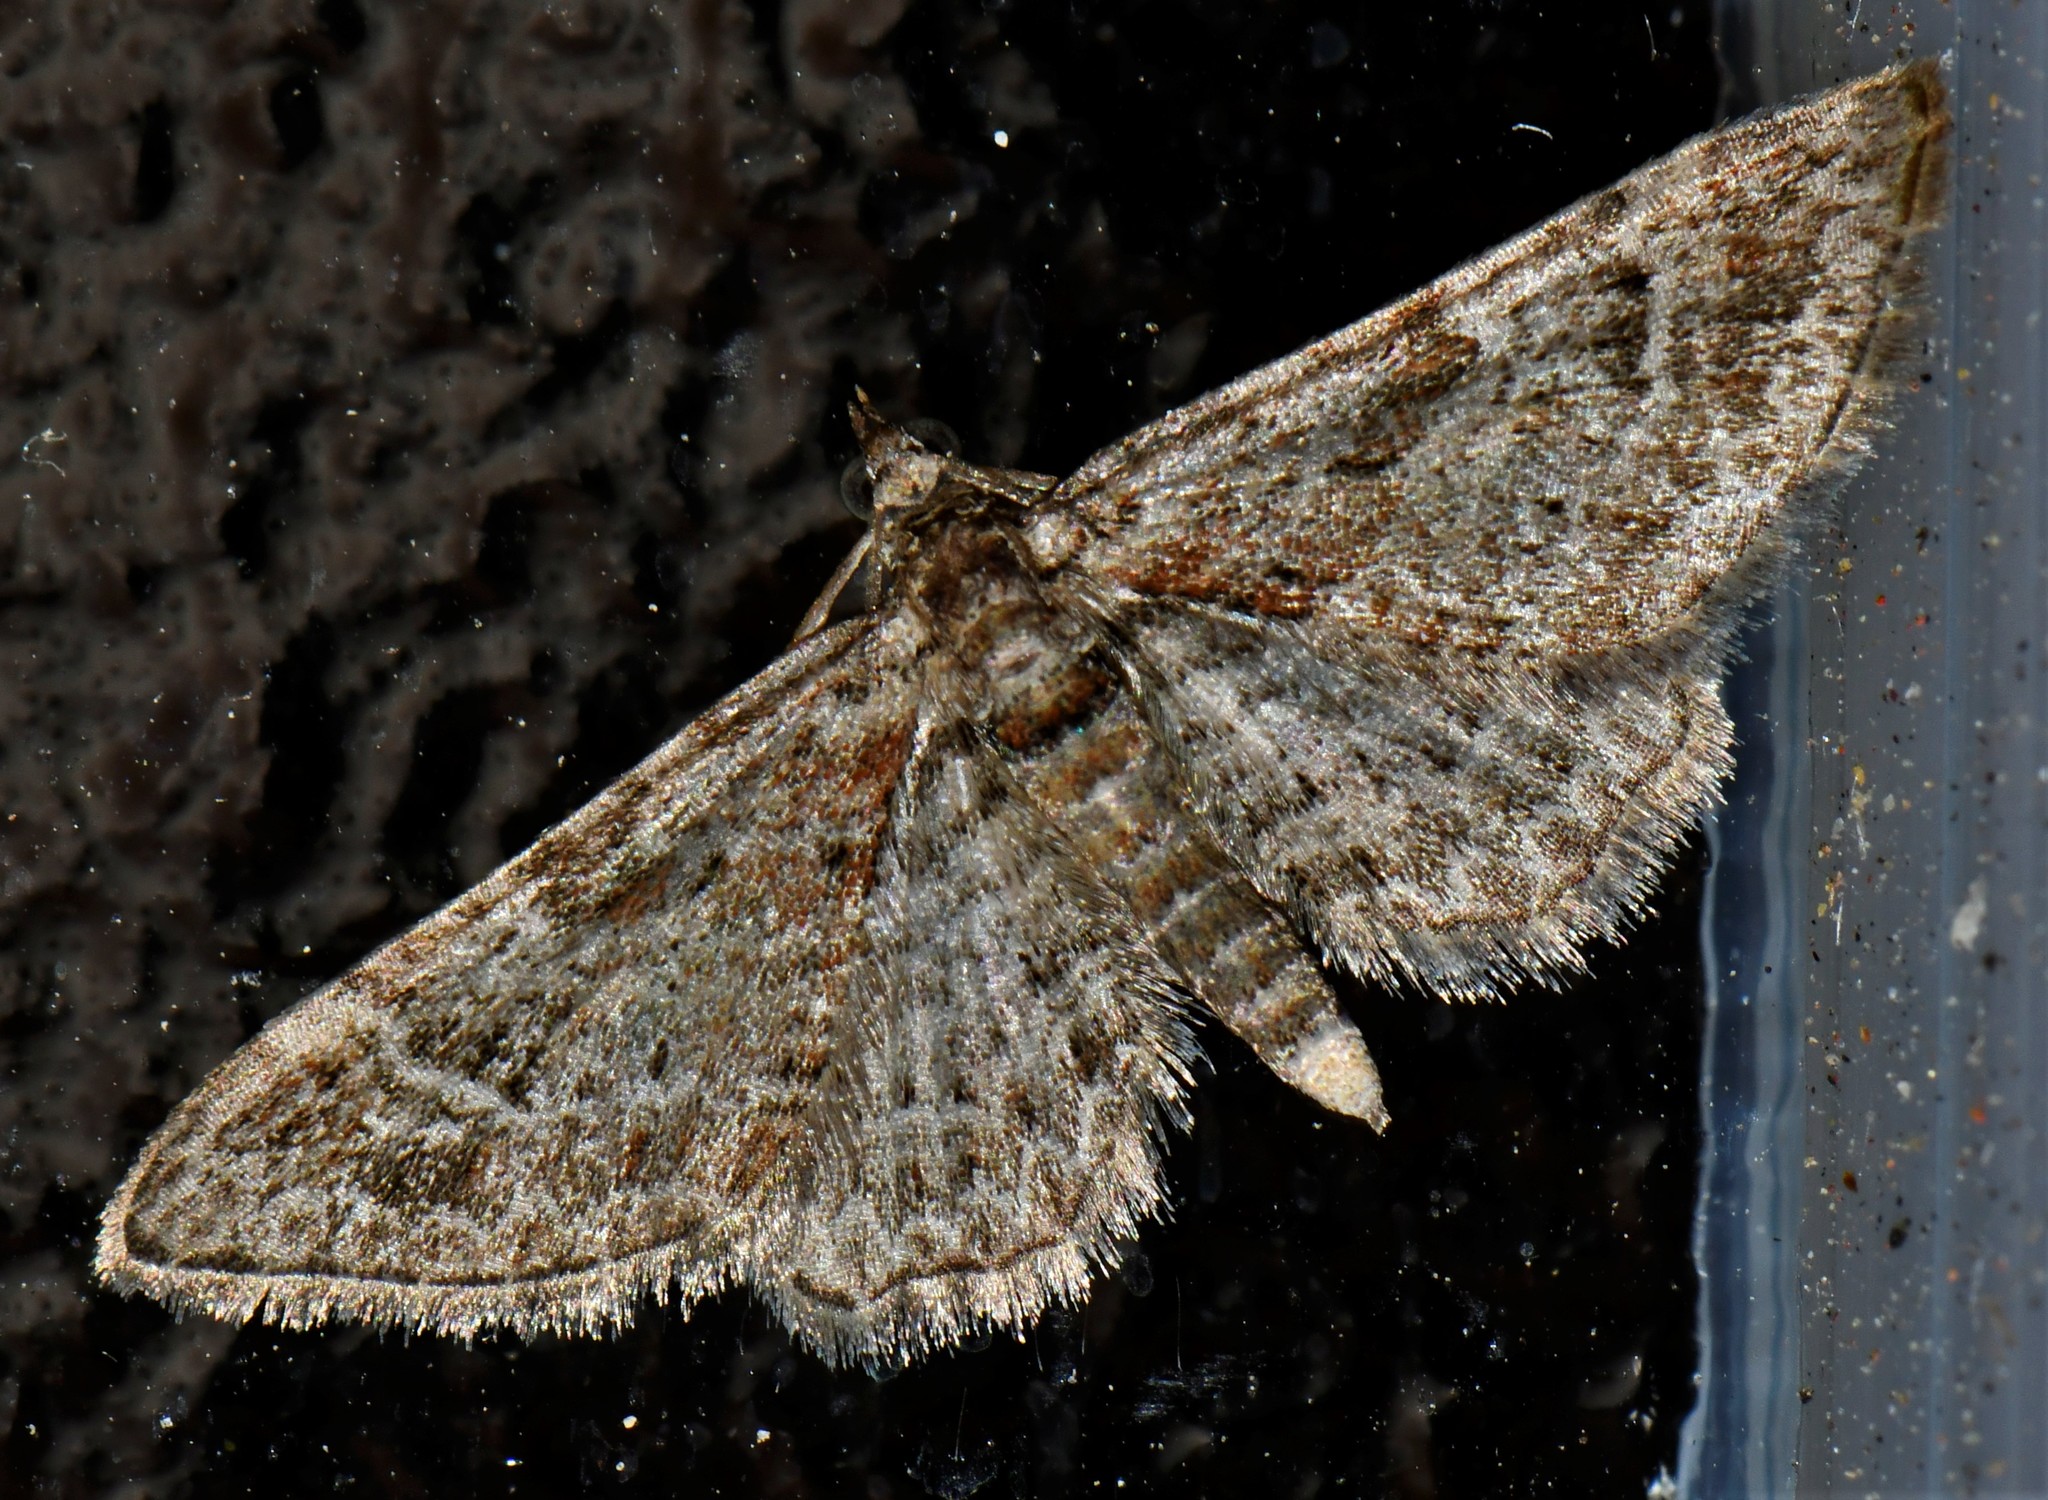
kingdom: Animalia
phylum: Arthropoda
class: Insecta
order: Lepidoptera
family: Geometridae
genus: Gymnoscelis
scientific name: Gymnoscelis rufifasciata
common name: Double-striped pug
